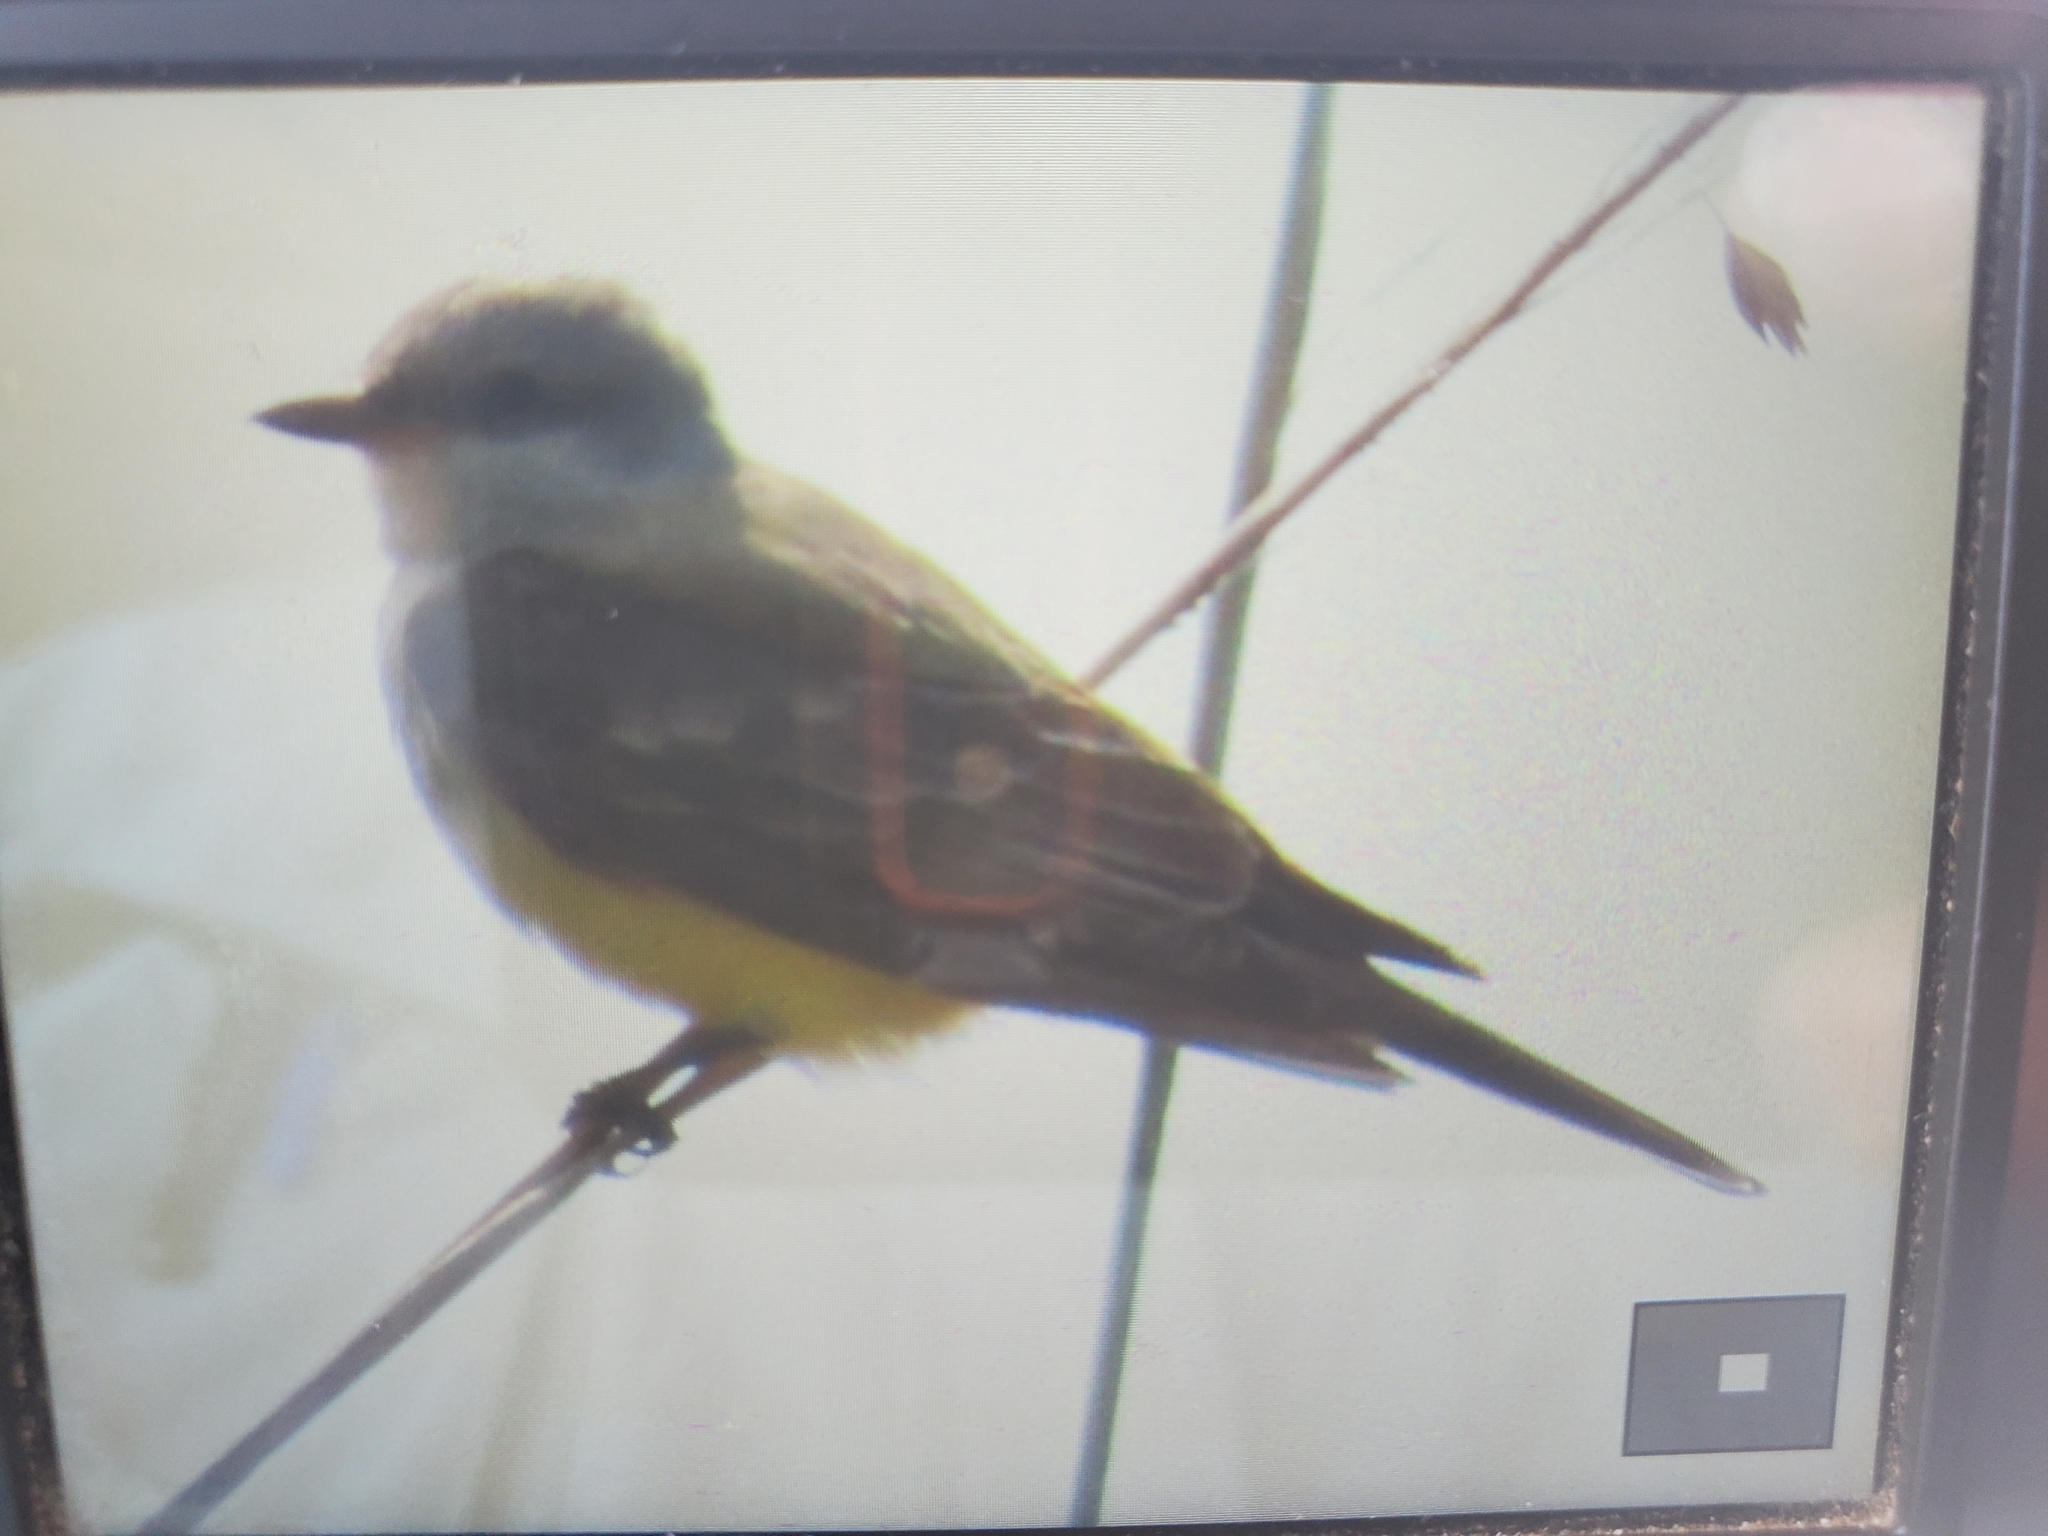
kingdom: Animalia
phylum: Chordata
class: Aves
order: Passeriformes
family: Tyrannidae
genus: Tyrannus
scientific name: Tyrannus verticalis
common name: Western kingbird
